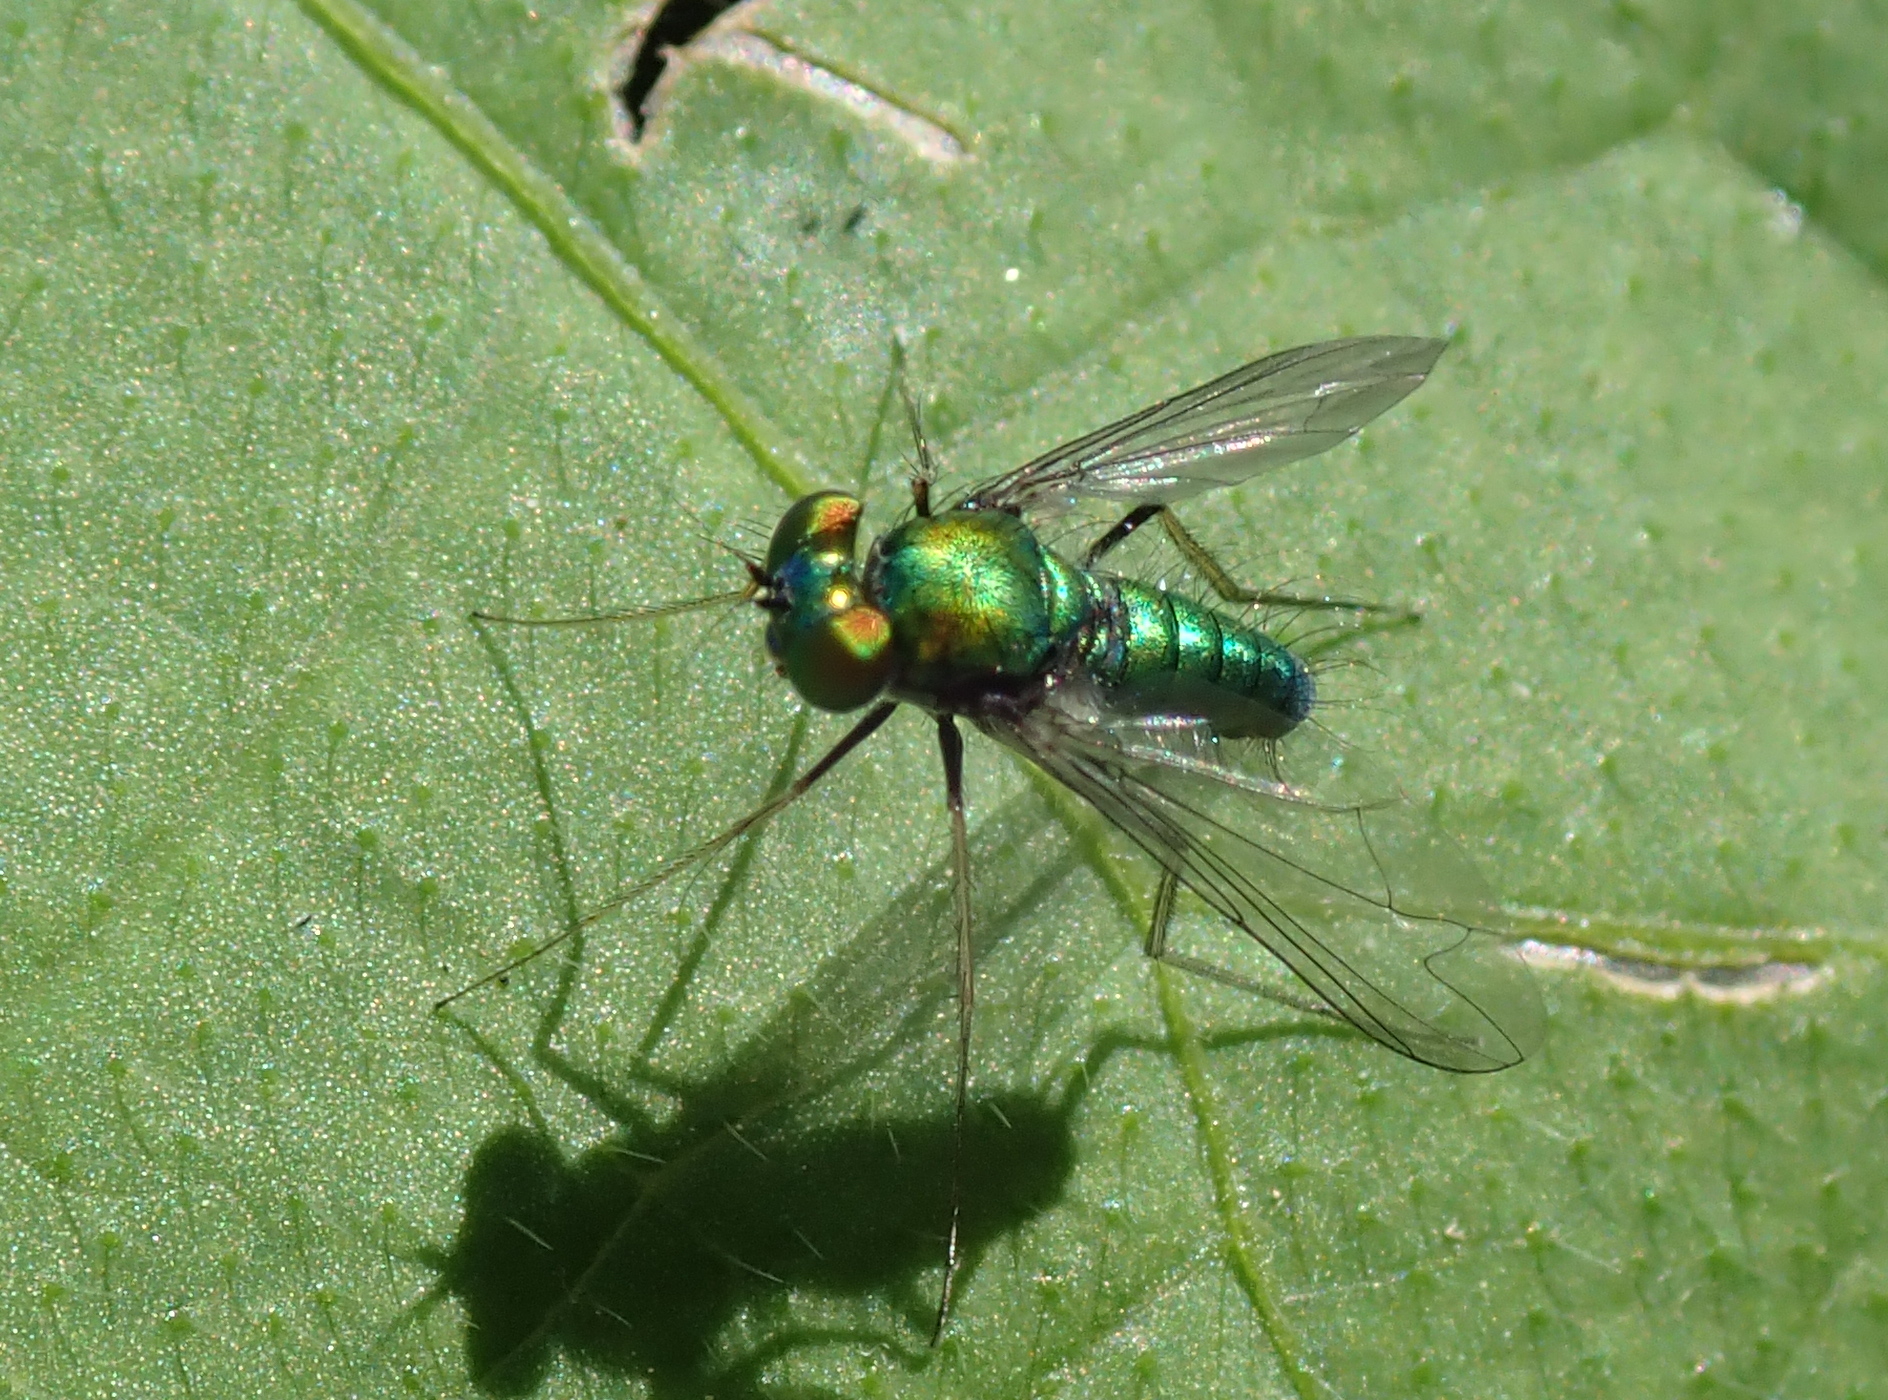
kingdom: Animalia
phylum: Arthropoda
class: Insecta
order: Diptera
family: Dolichopodidae
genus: Condylostylus
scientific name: Condylostylus comatus
